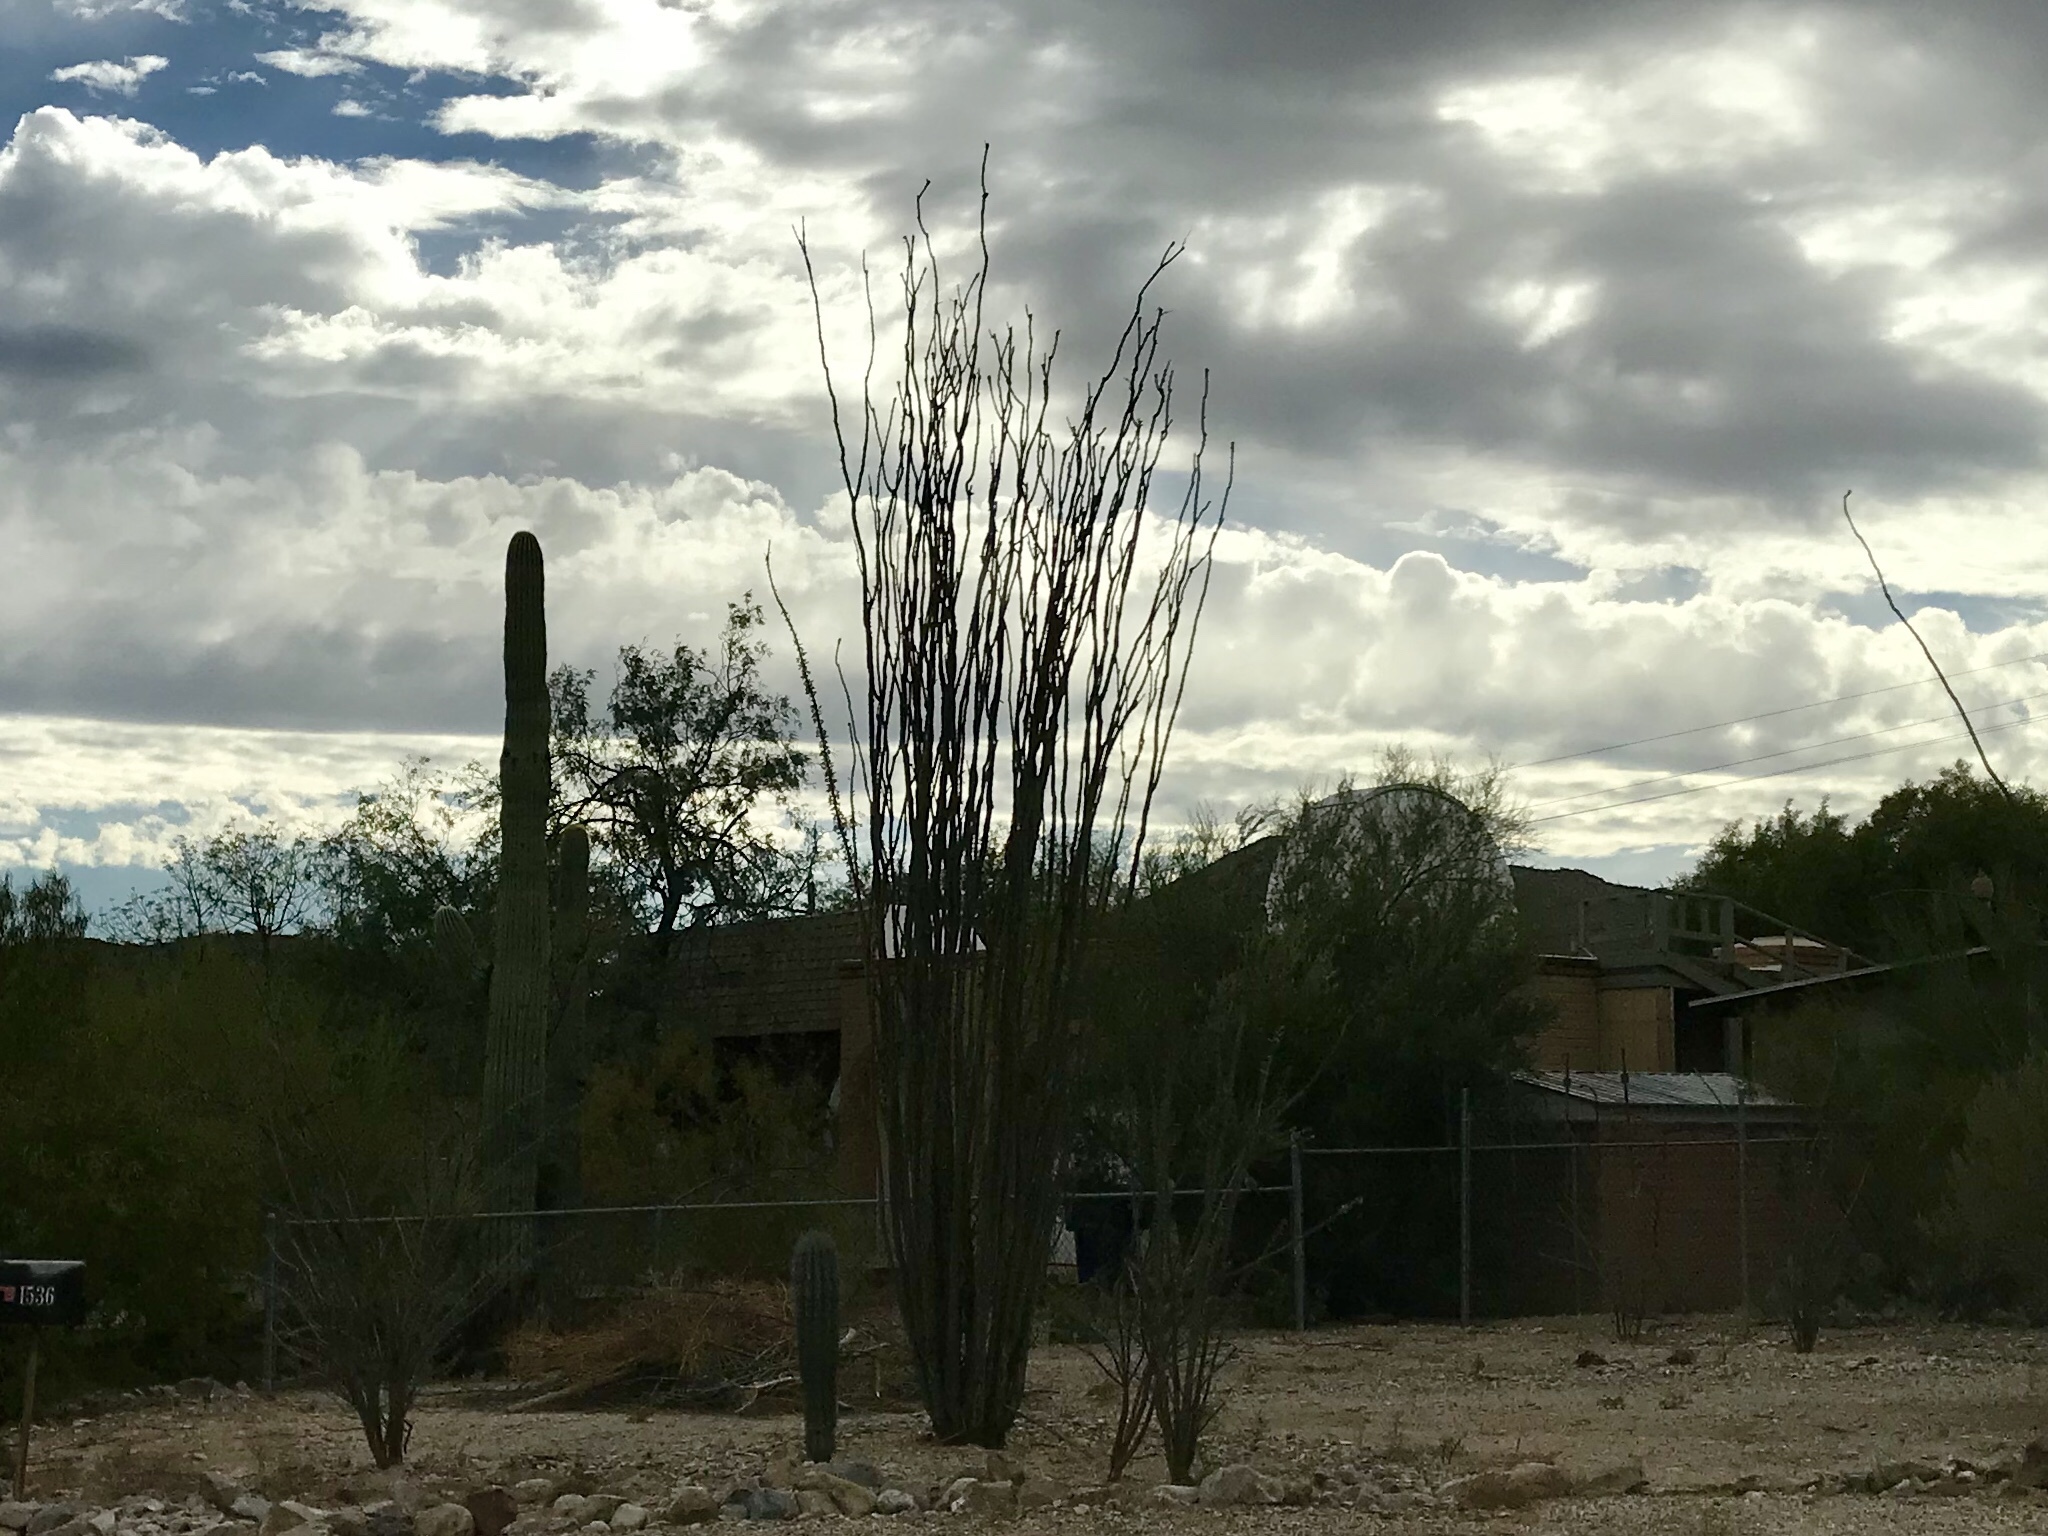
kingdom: Plantae
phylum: Tracheophyta
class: Magnoliopsida
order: Ericales
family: Fouquieriaceae
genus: Fouquieria
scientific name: Fouquieria splendens
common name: Vine-cactus
